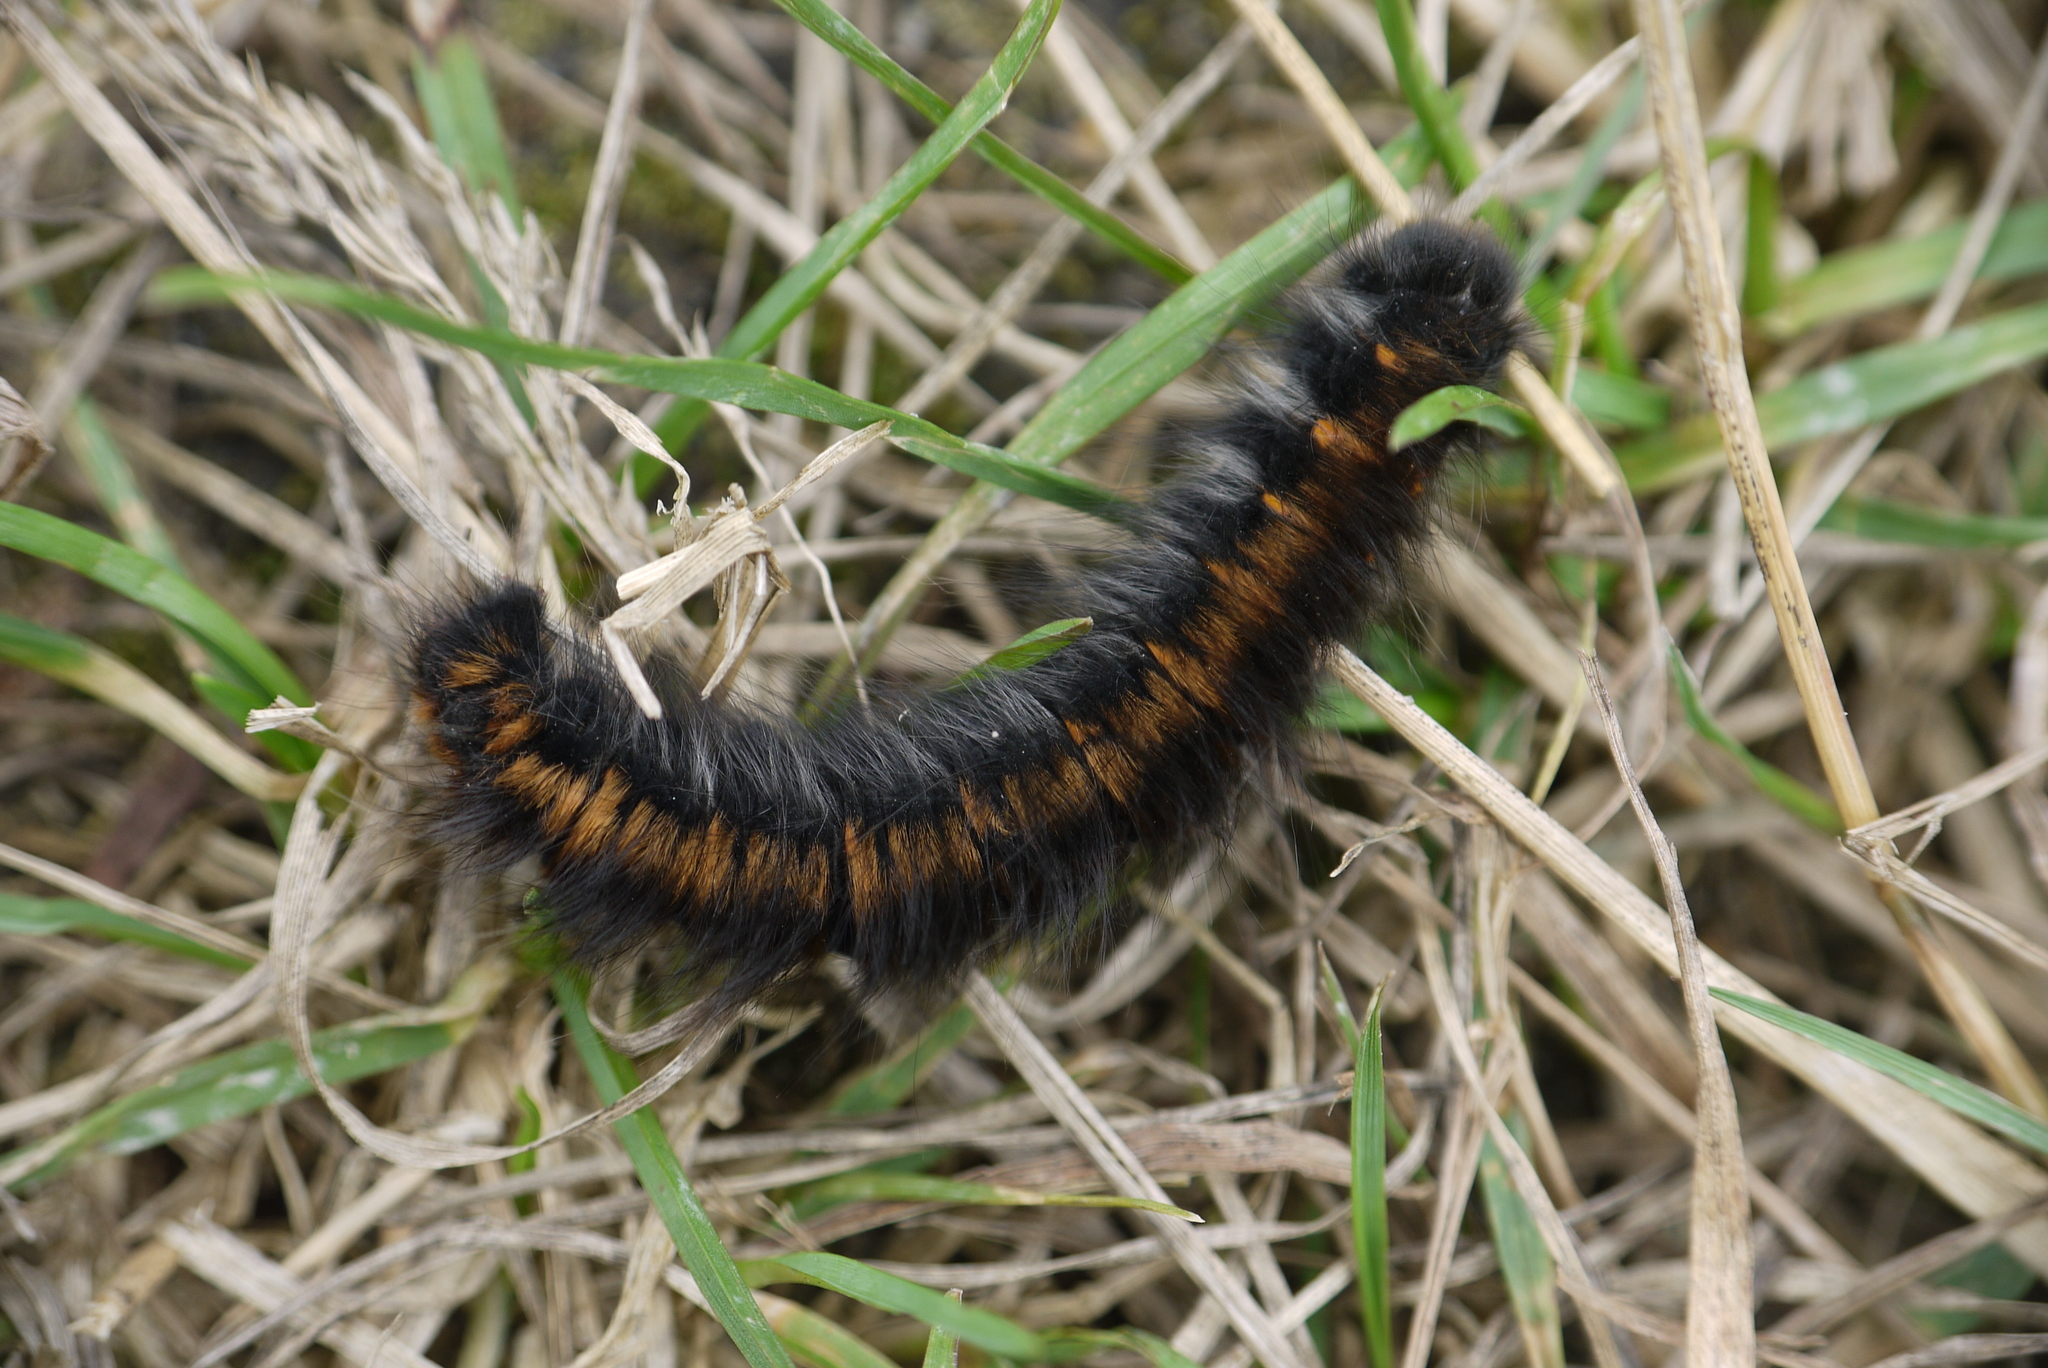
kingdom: Animalia
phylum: Arthropoda
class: Insecta
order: Lepidoptera
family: Lasiocampidae
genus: Macrothylacia
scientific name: Macrothylacia rubi
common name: Fox moth
